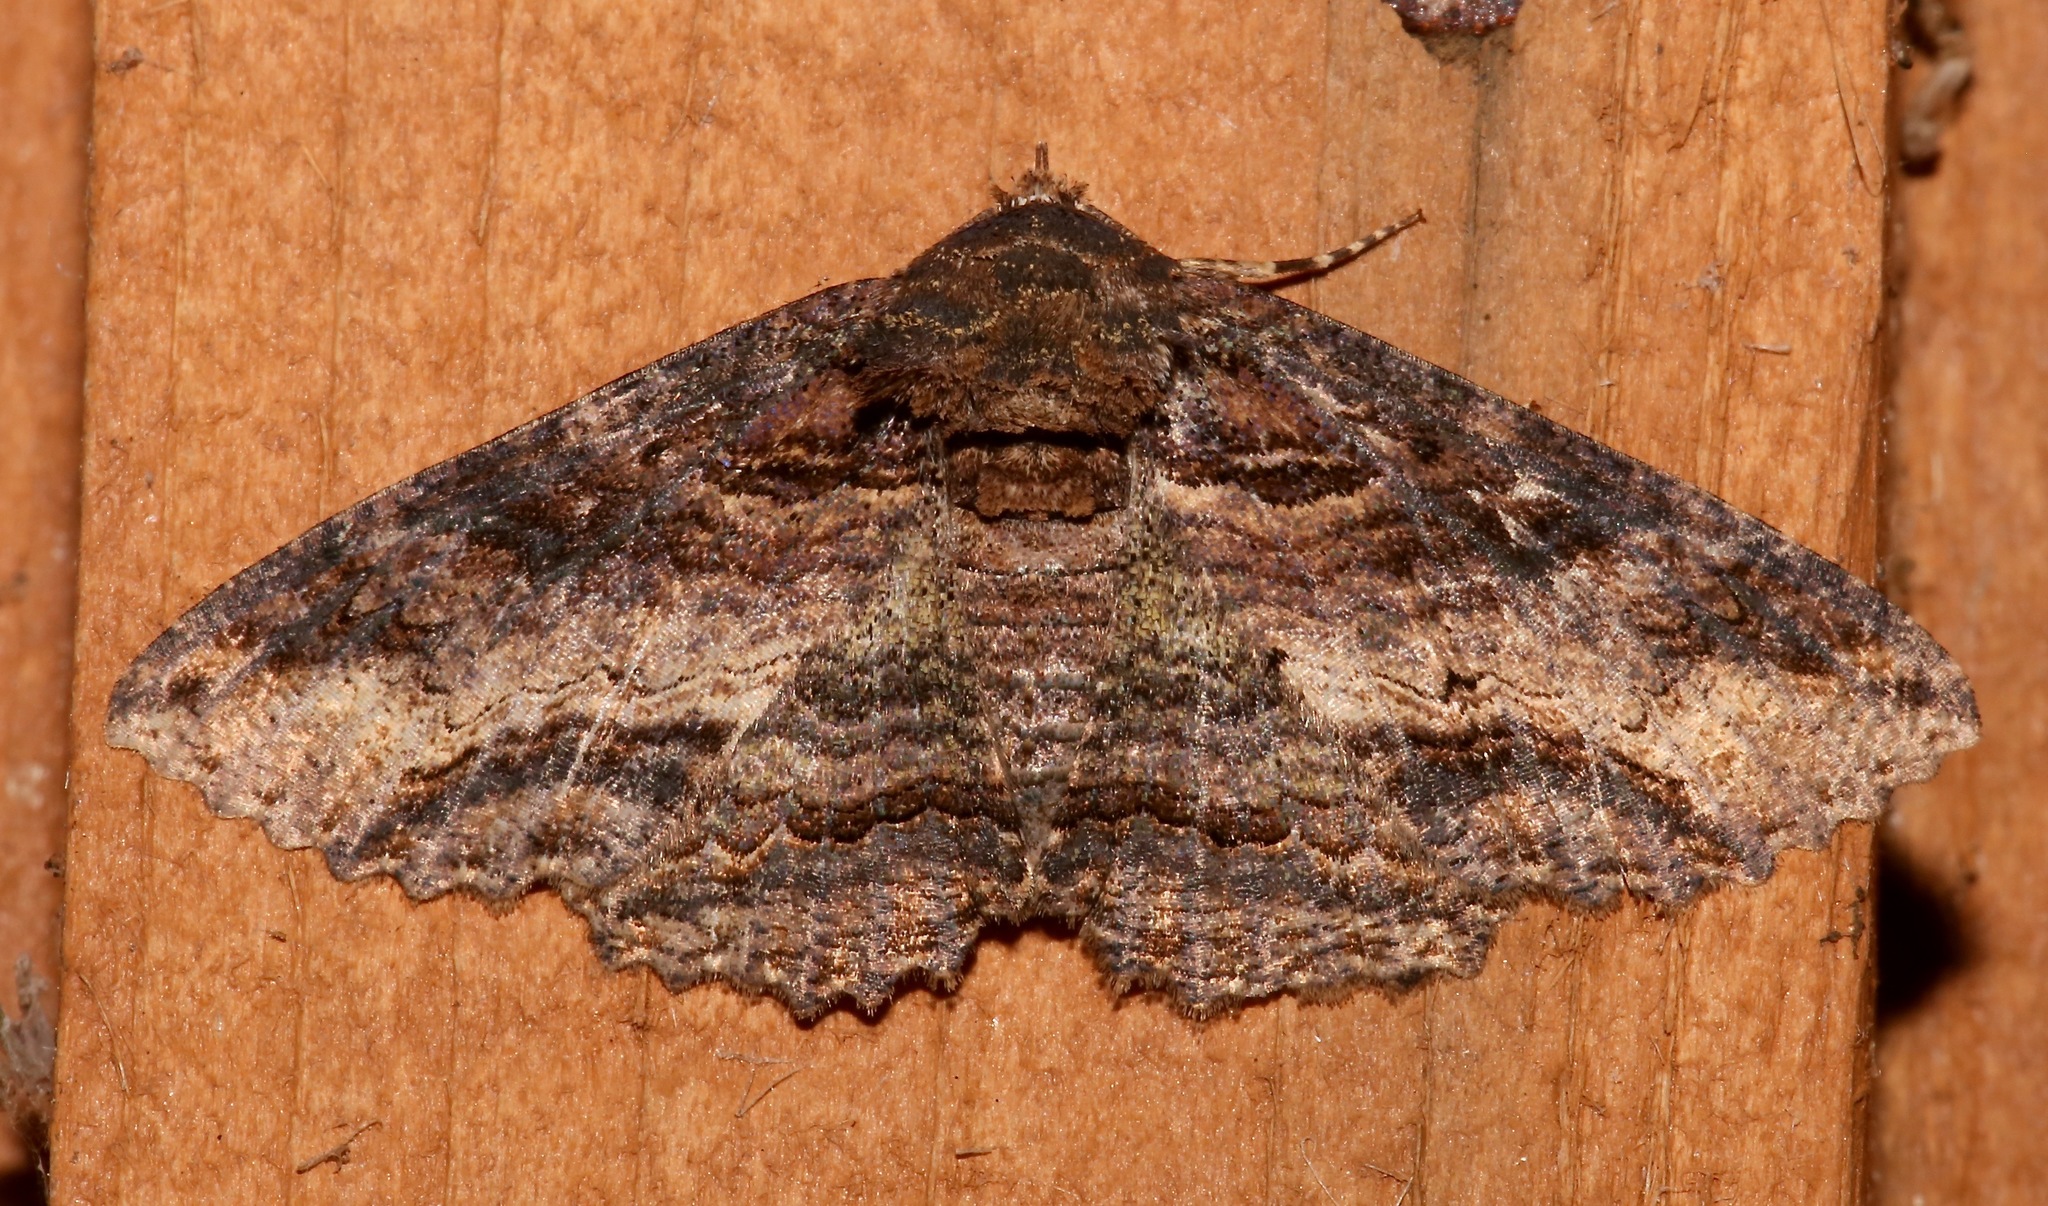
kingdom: Animalia
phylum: Arthropoda
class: Insecta
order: Lepidoptera
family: Erebidae
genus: Zale
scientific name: Zale lunata
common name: Lunate zale moth
